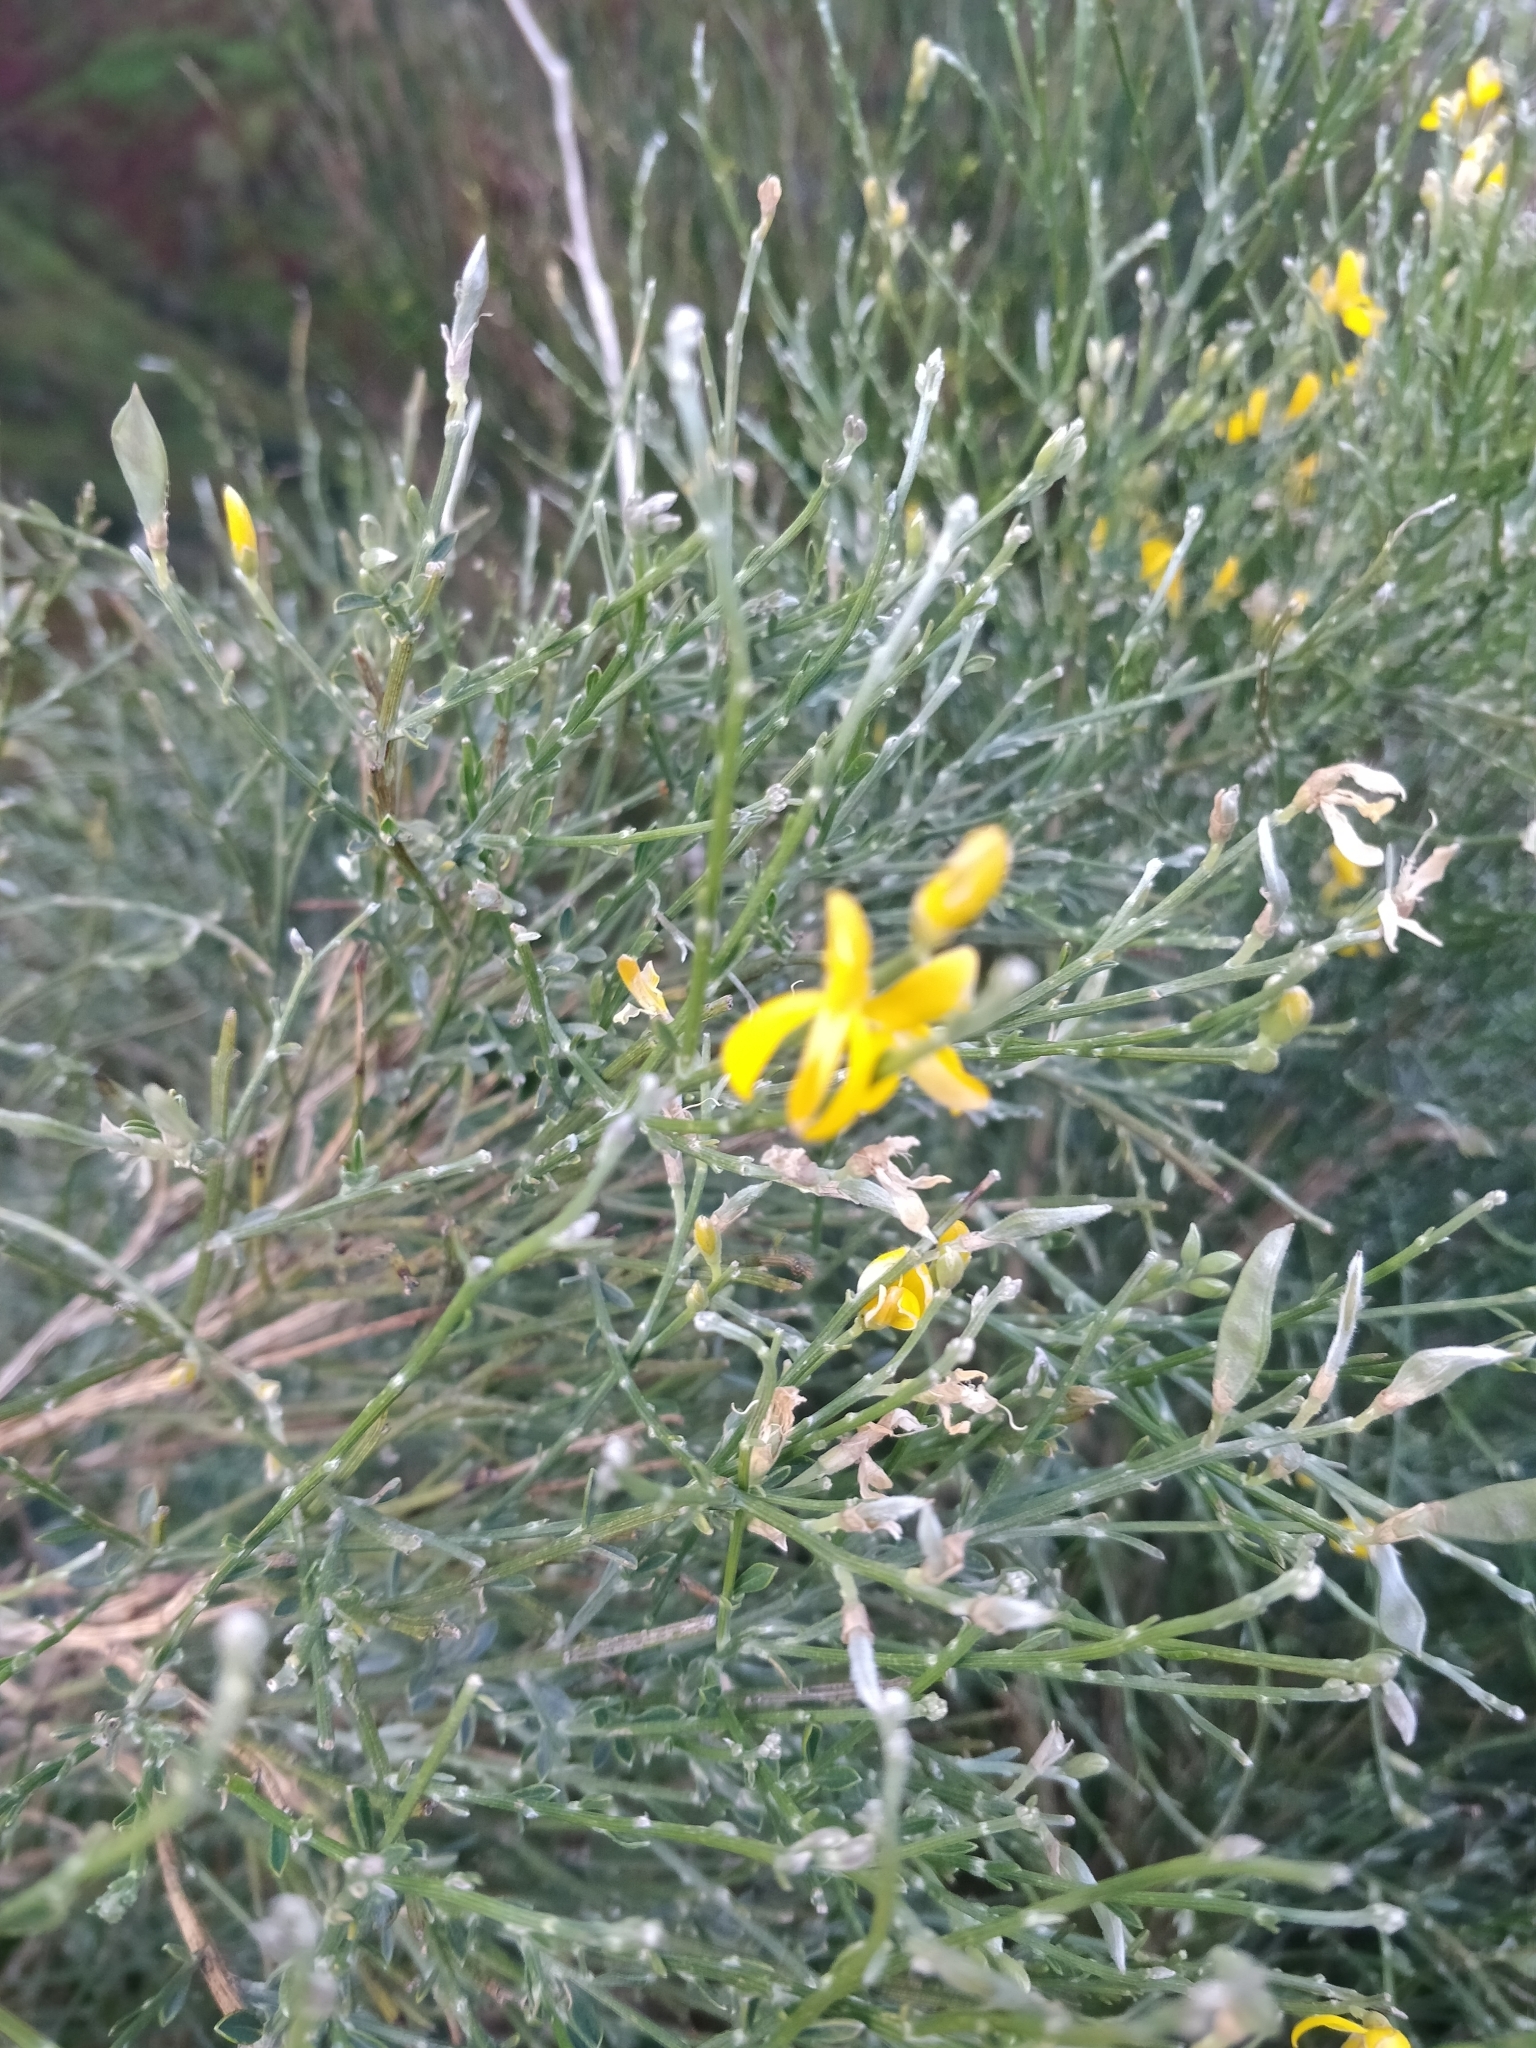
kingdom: Plantae
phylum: Tracheophyta
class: Magnoliopsida
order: Fabales
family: Fabaceae
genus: Genista
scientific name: Genista tenera
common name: Madeira broom
